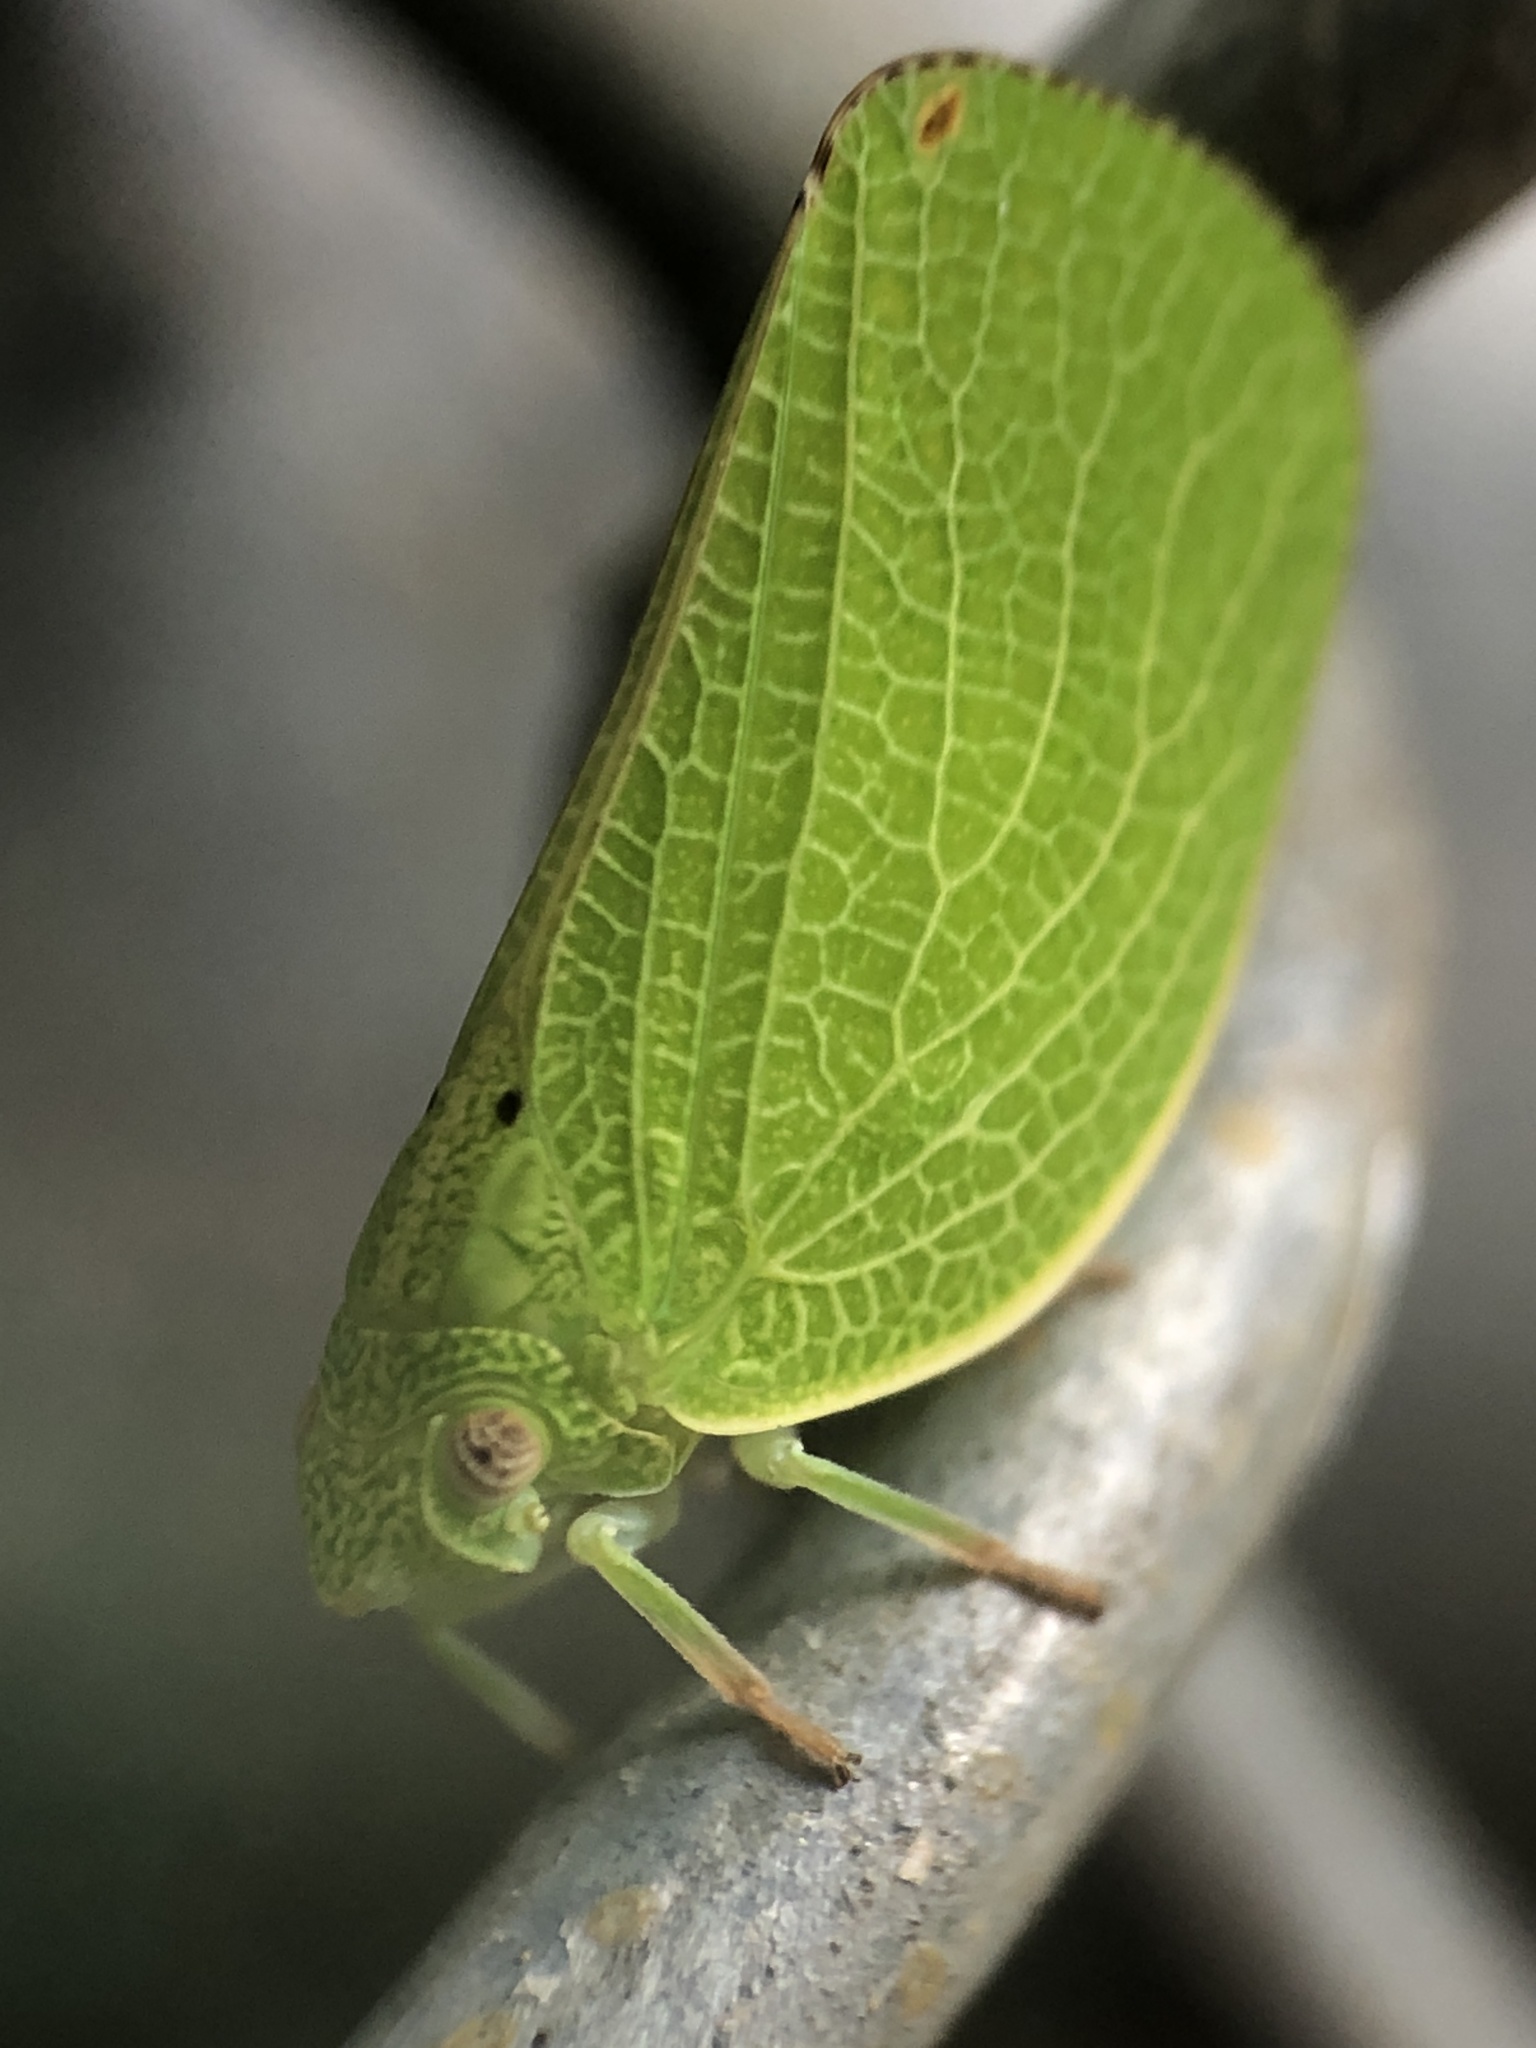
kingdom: Animalia
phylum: Arthropoda
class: Insecta
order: Hemiptera
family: Acanaloniidae
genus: Acanalonia
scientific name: Acanalonia conica
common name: Green cone-headed planthopper
